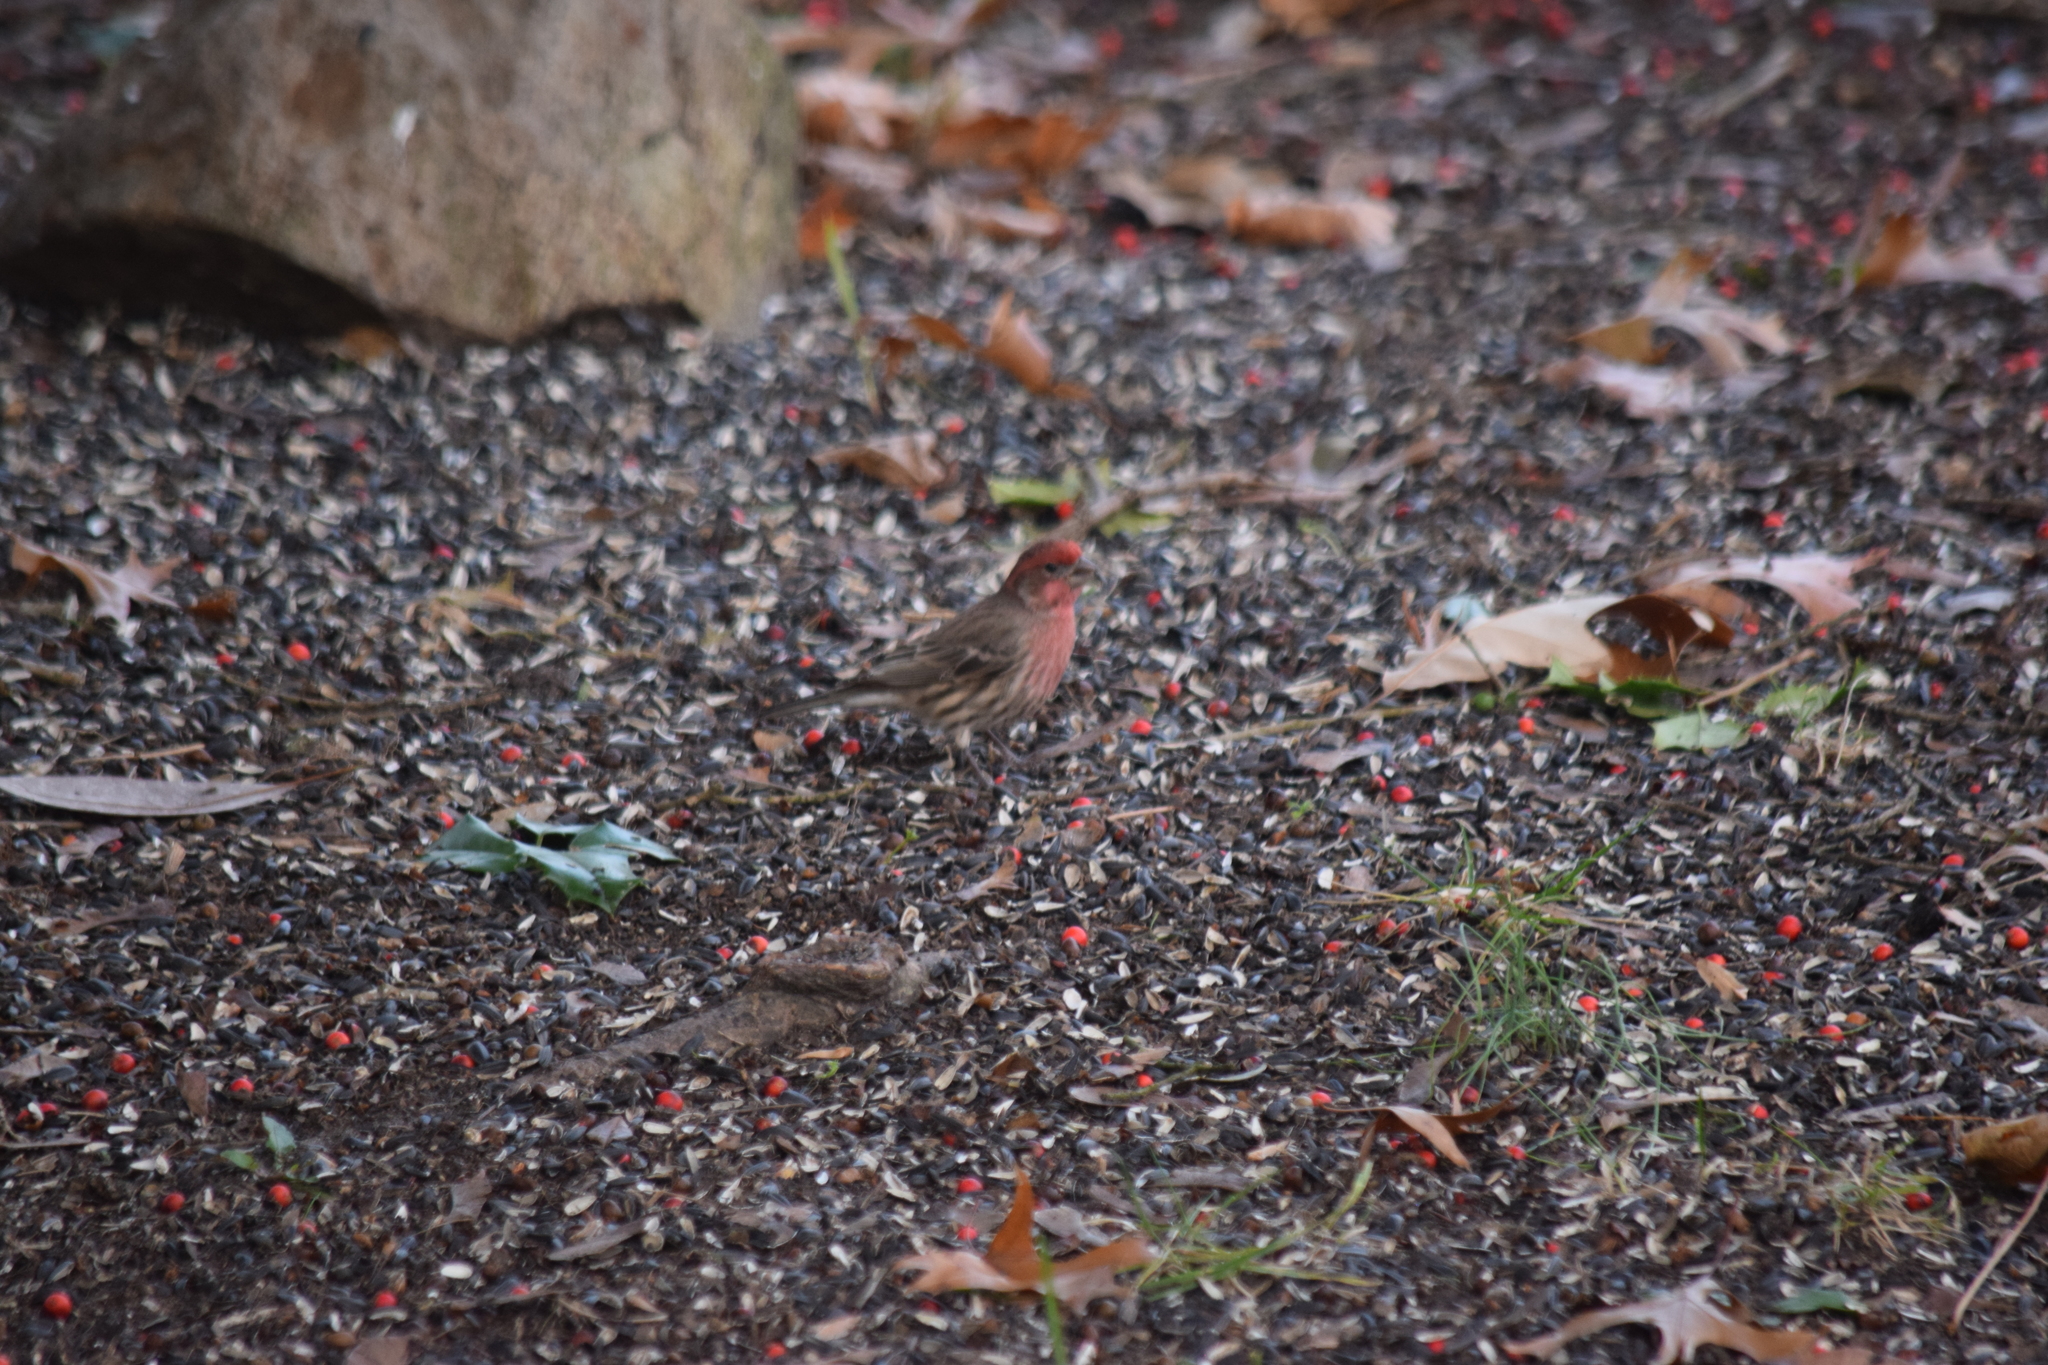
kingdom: Animalia
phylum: Chordata
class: Aves
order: Passeriformes
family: Fringillidae
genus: Haemorhous
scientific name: Haemorhous mexicanus
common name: House finch
